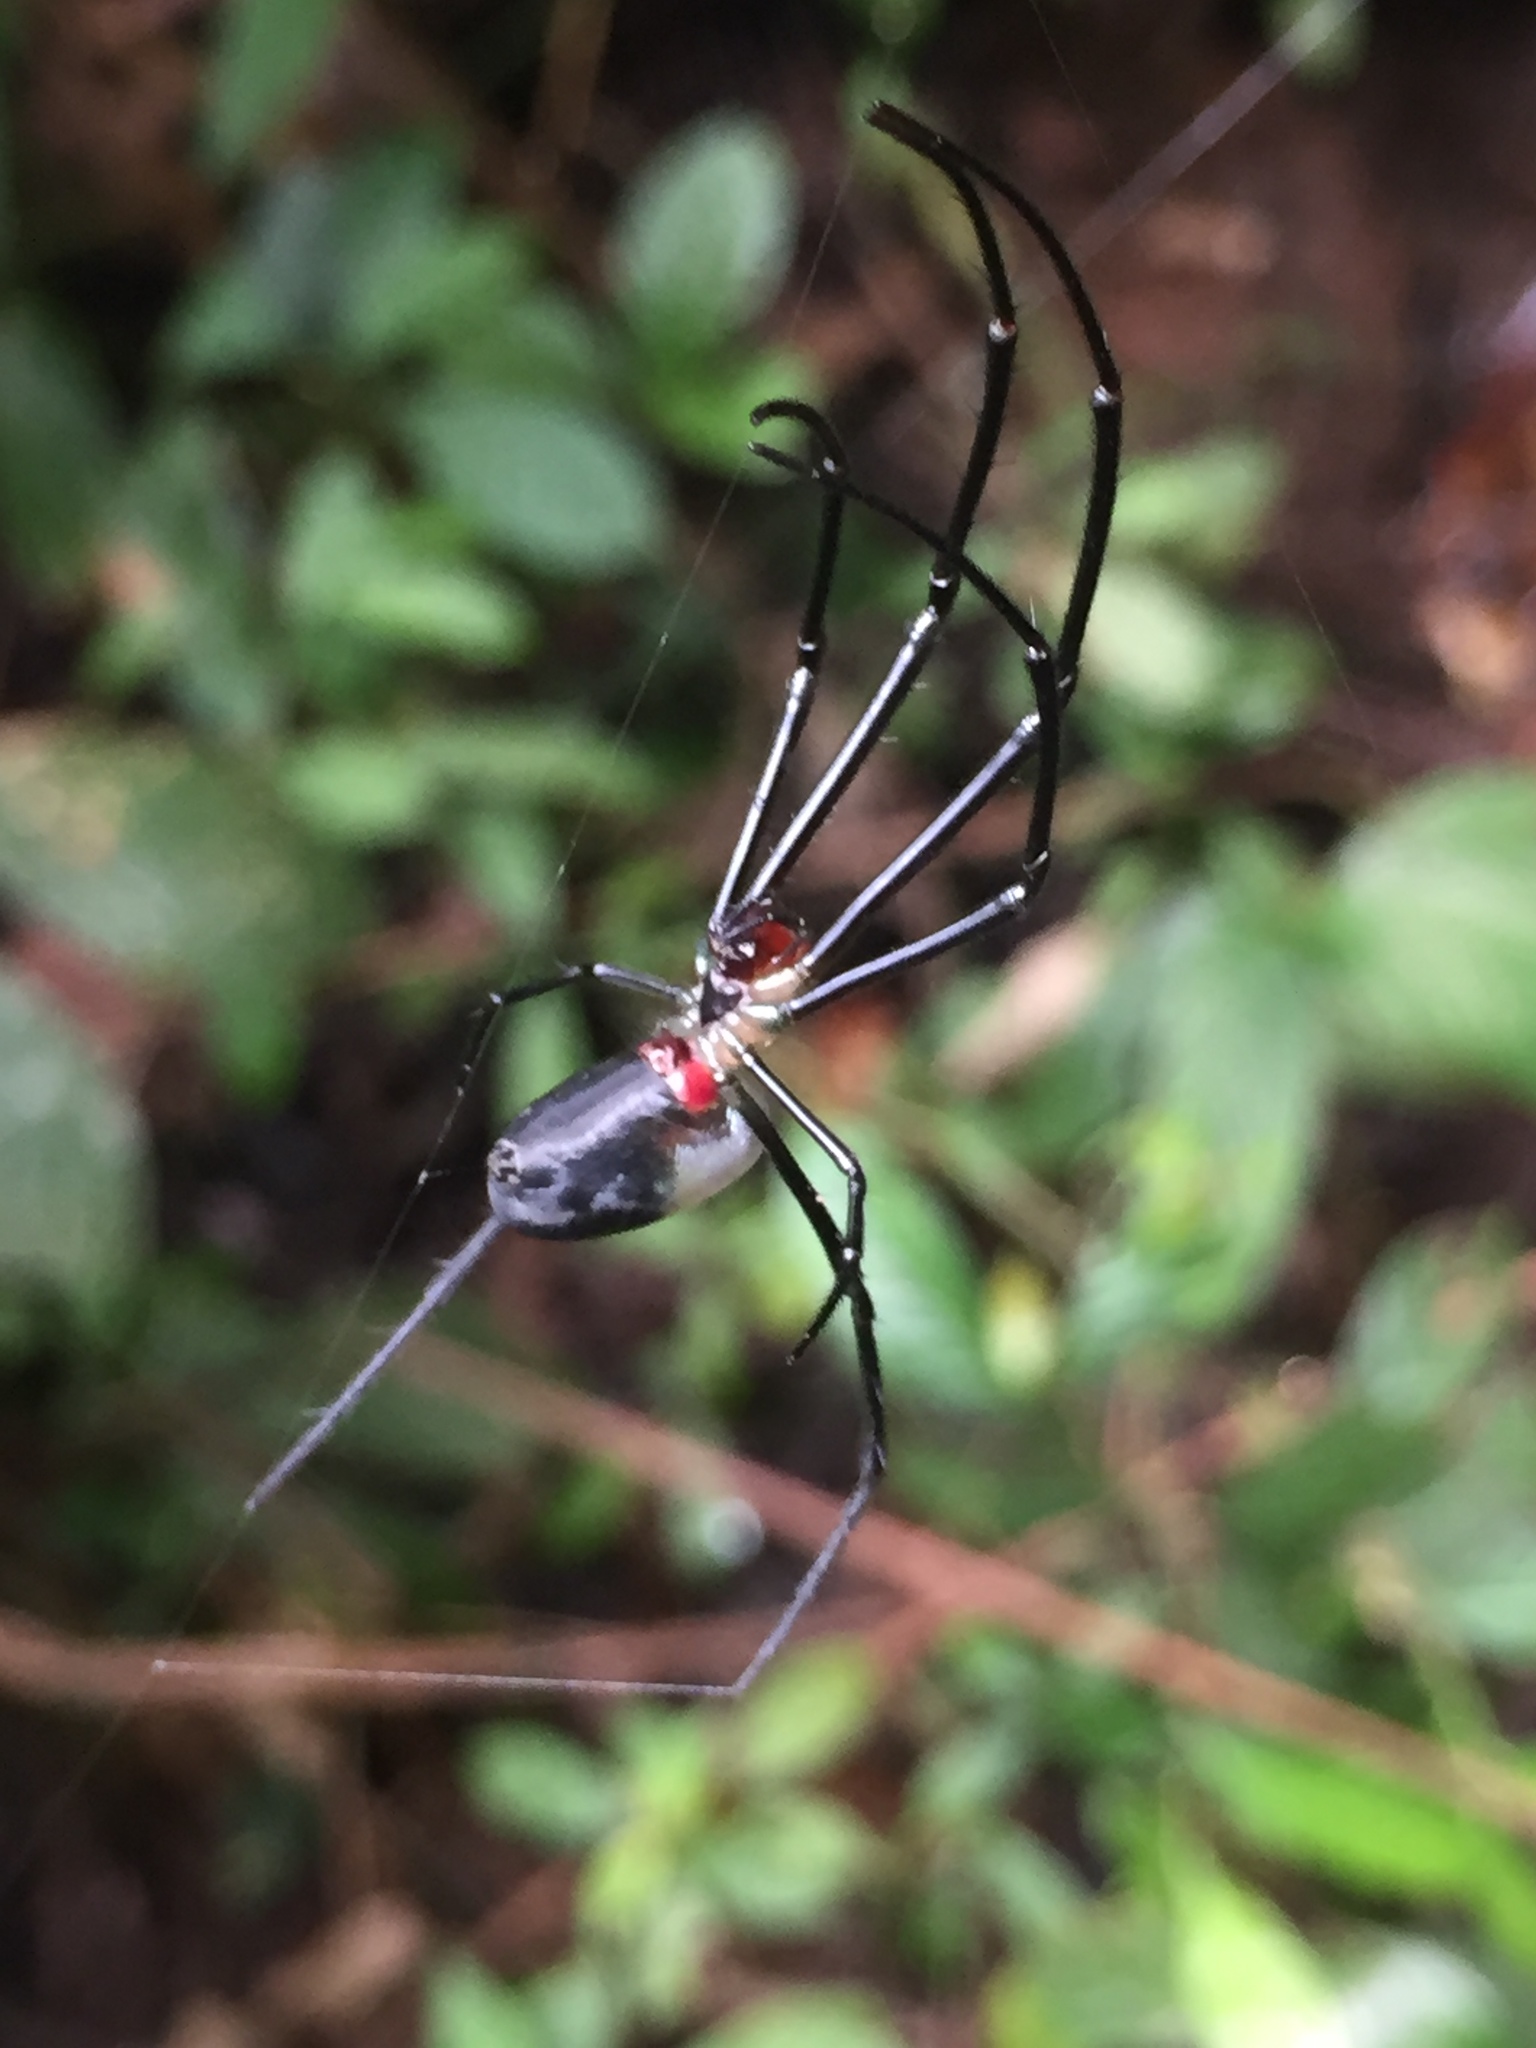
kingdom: Animalia
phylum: Arthropoda
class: Arachnida
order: Araneae
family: Tetragnathidae
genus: Leucauge
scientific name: Leucauge
